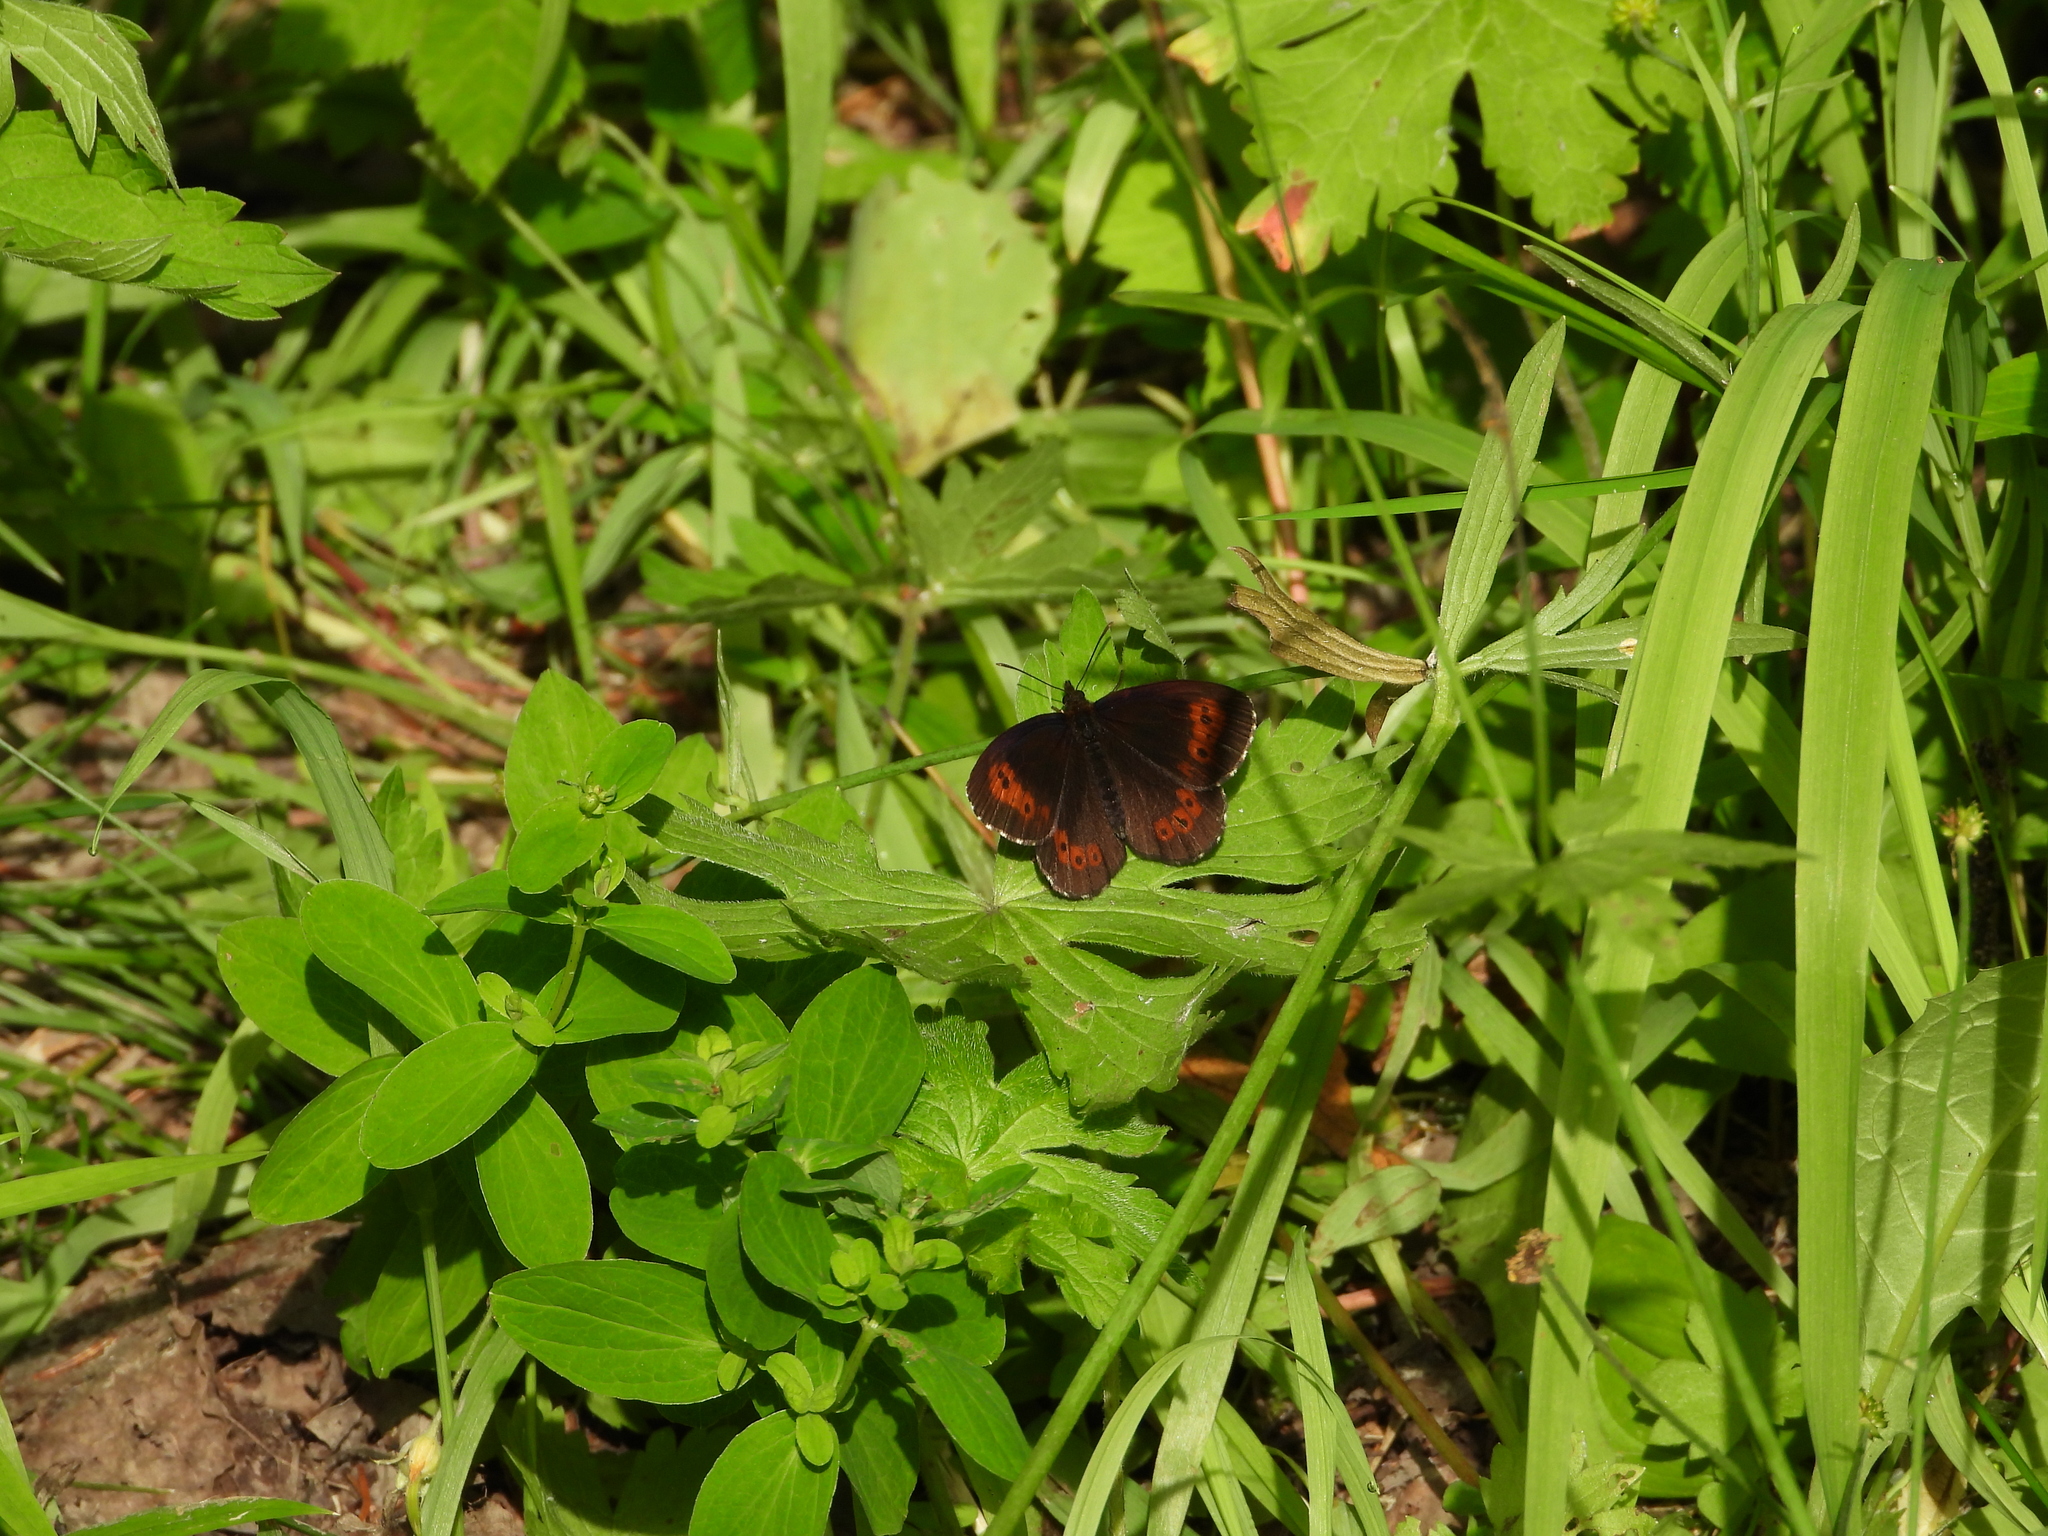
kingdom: Animalia
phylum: Arthropoda
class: Insecta
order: Lepidoptera
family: Nymphalidae
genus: Erebia
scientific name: Erebia ligea
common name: Arran brown
